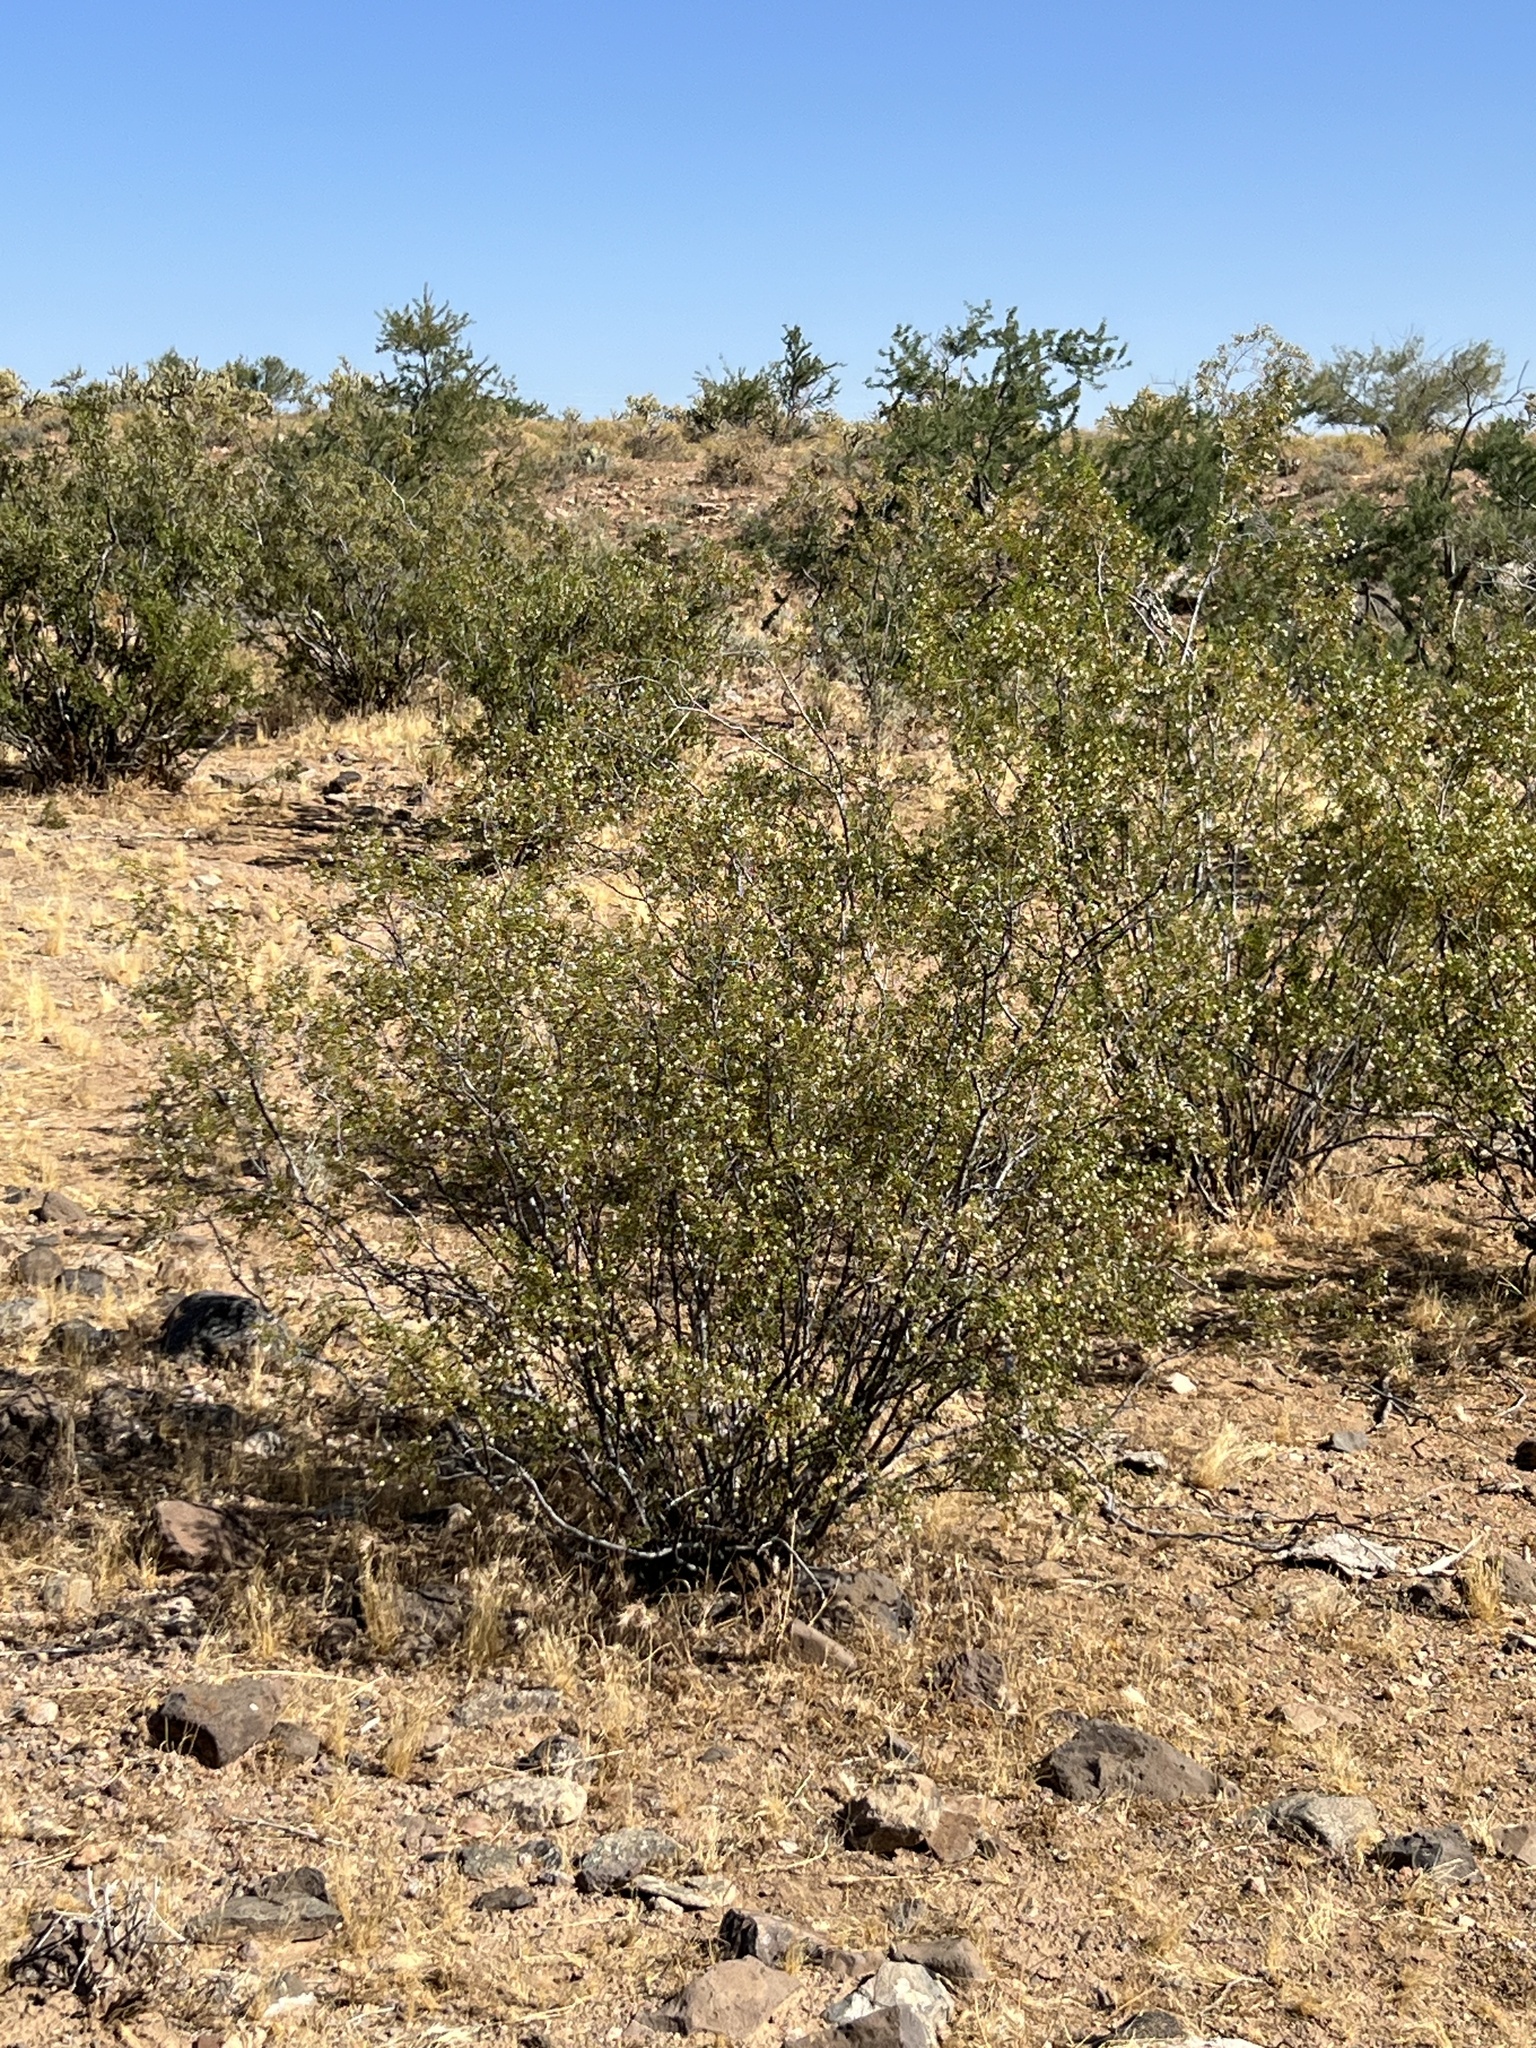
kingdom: Plantae
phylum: Tracheophyta
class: Magnoliopsida
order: Zygophyllales
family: Zygophyllaceae
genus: Larrea
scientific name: Larrea tridentata
